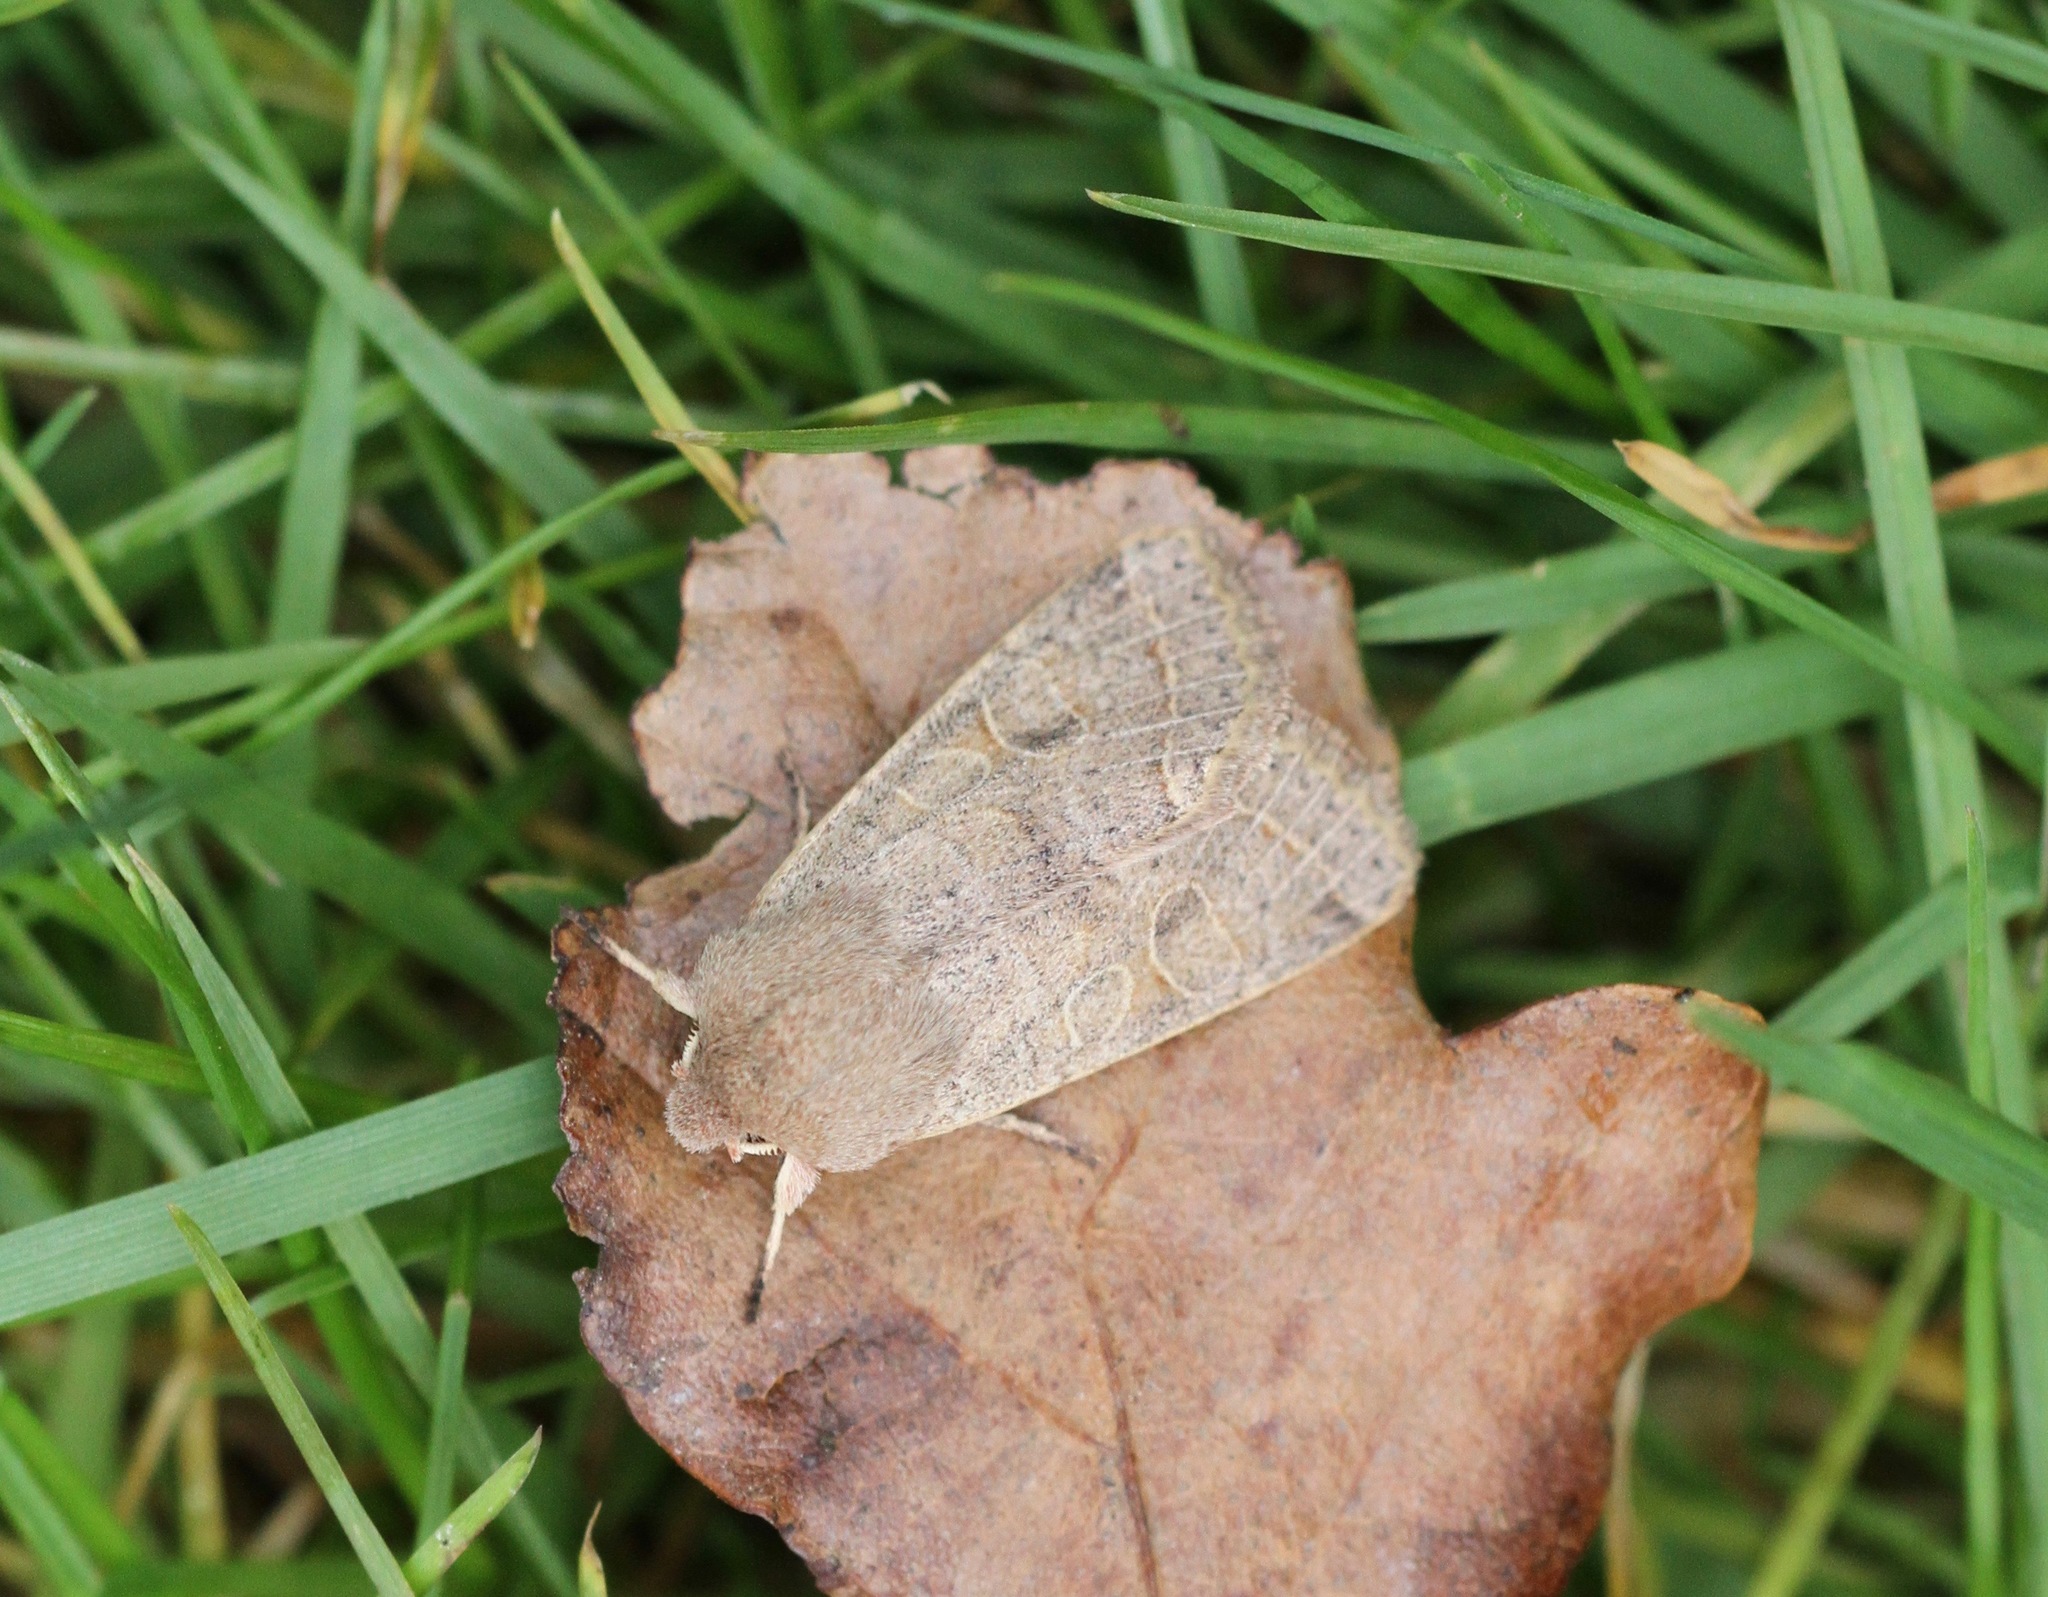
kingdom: Animalia
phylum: Arthropoda
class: Insecta
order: Lepidoptera
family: Noctuidae
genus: Orthosia
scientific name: Orthosia cerasi
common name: Common quaker
